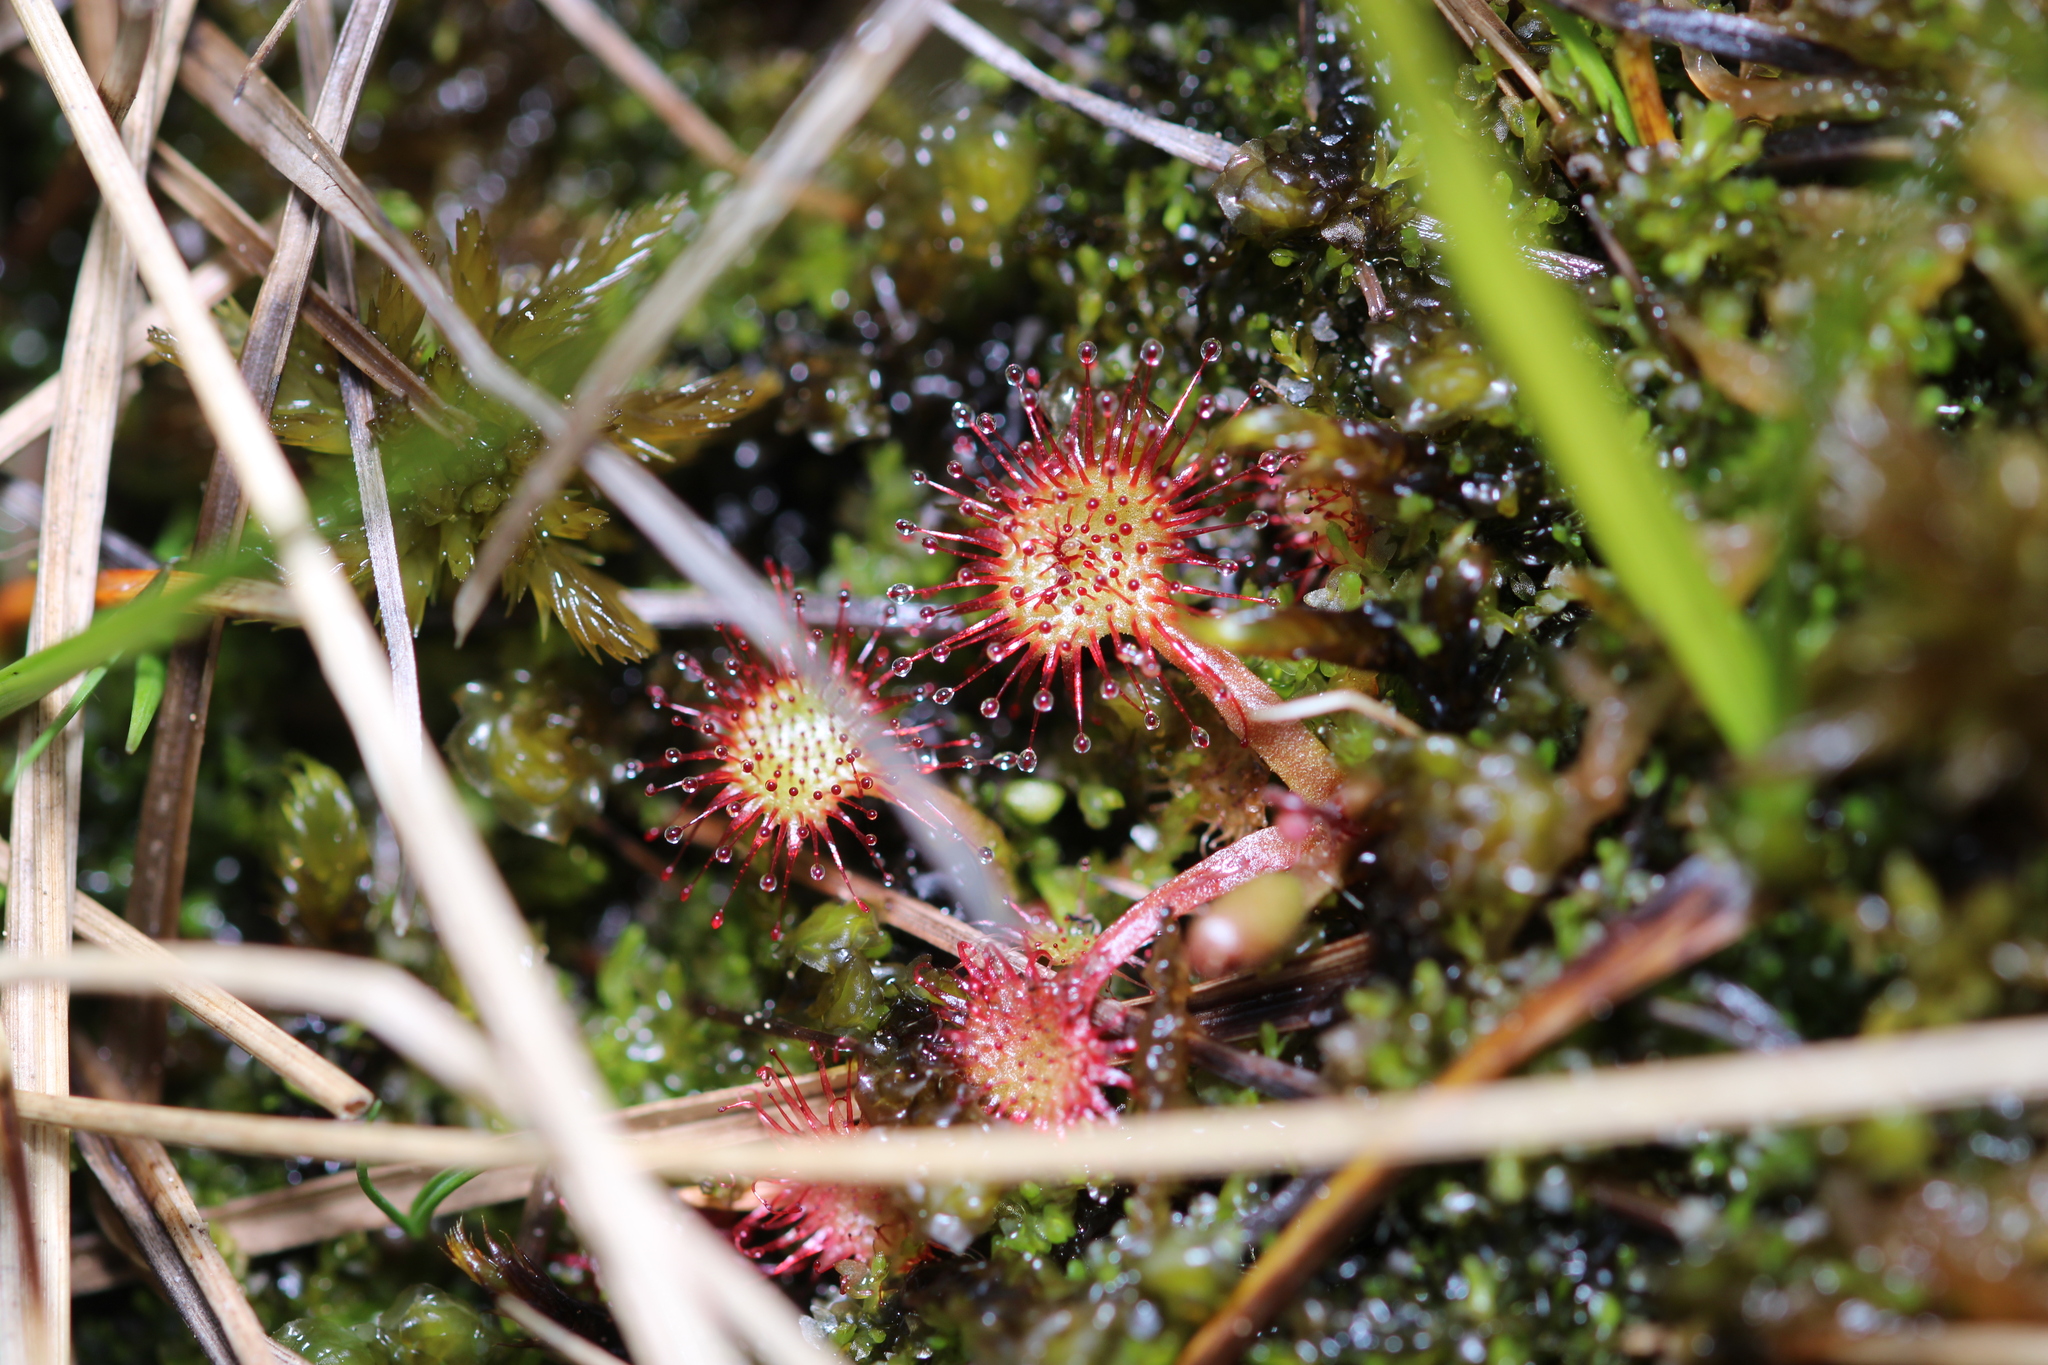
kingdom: Plantae
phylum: Tracheophyta
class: Magnoliopsida
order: Caryophyllales
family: Droseraceae
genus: Drosera
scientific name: Drosera rotundifolia
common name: Round-leaved sundew
